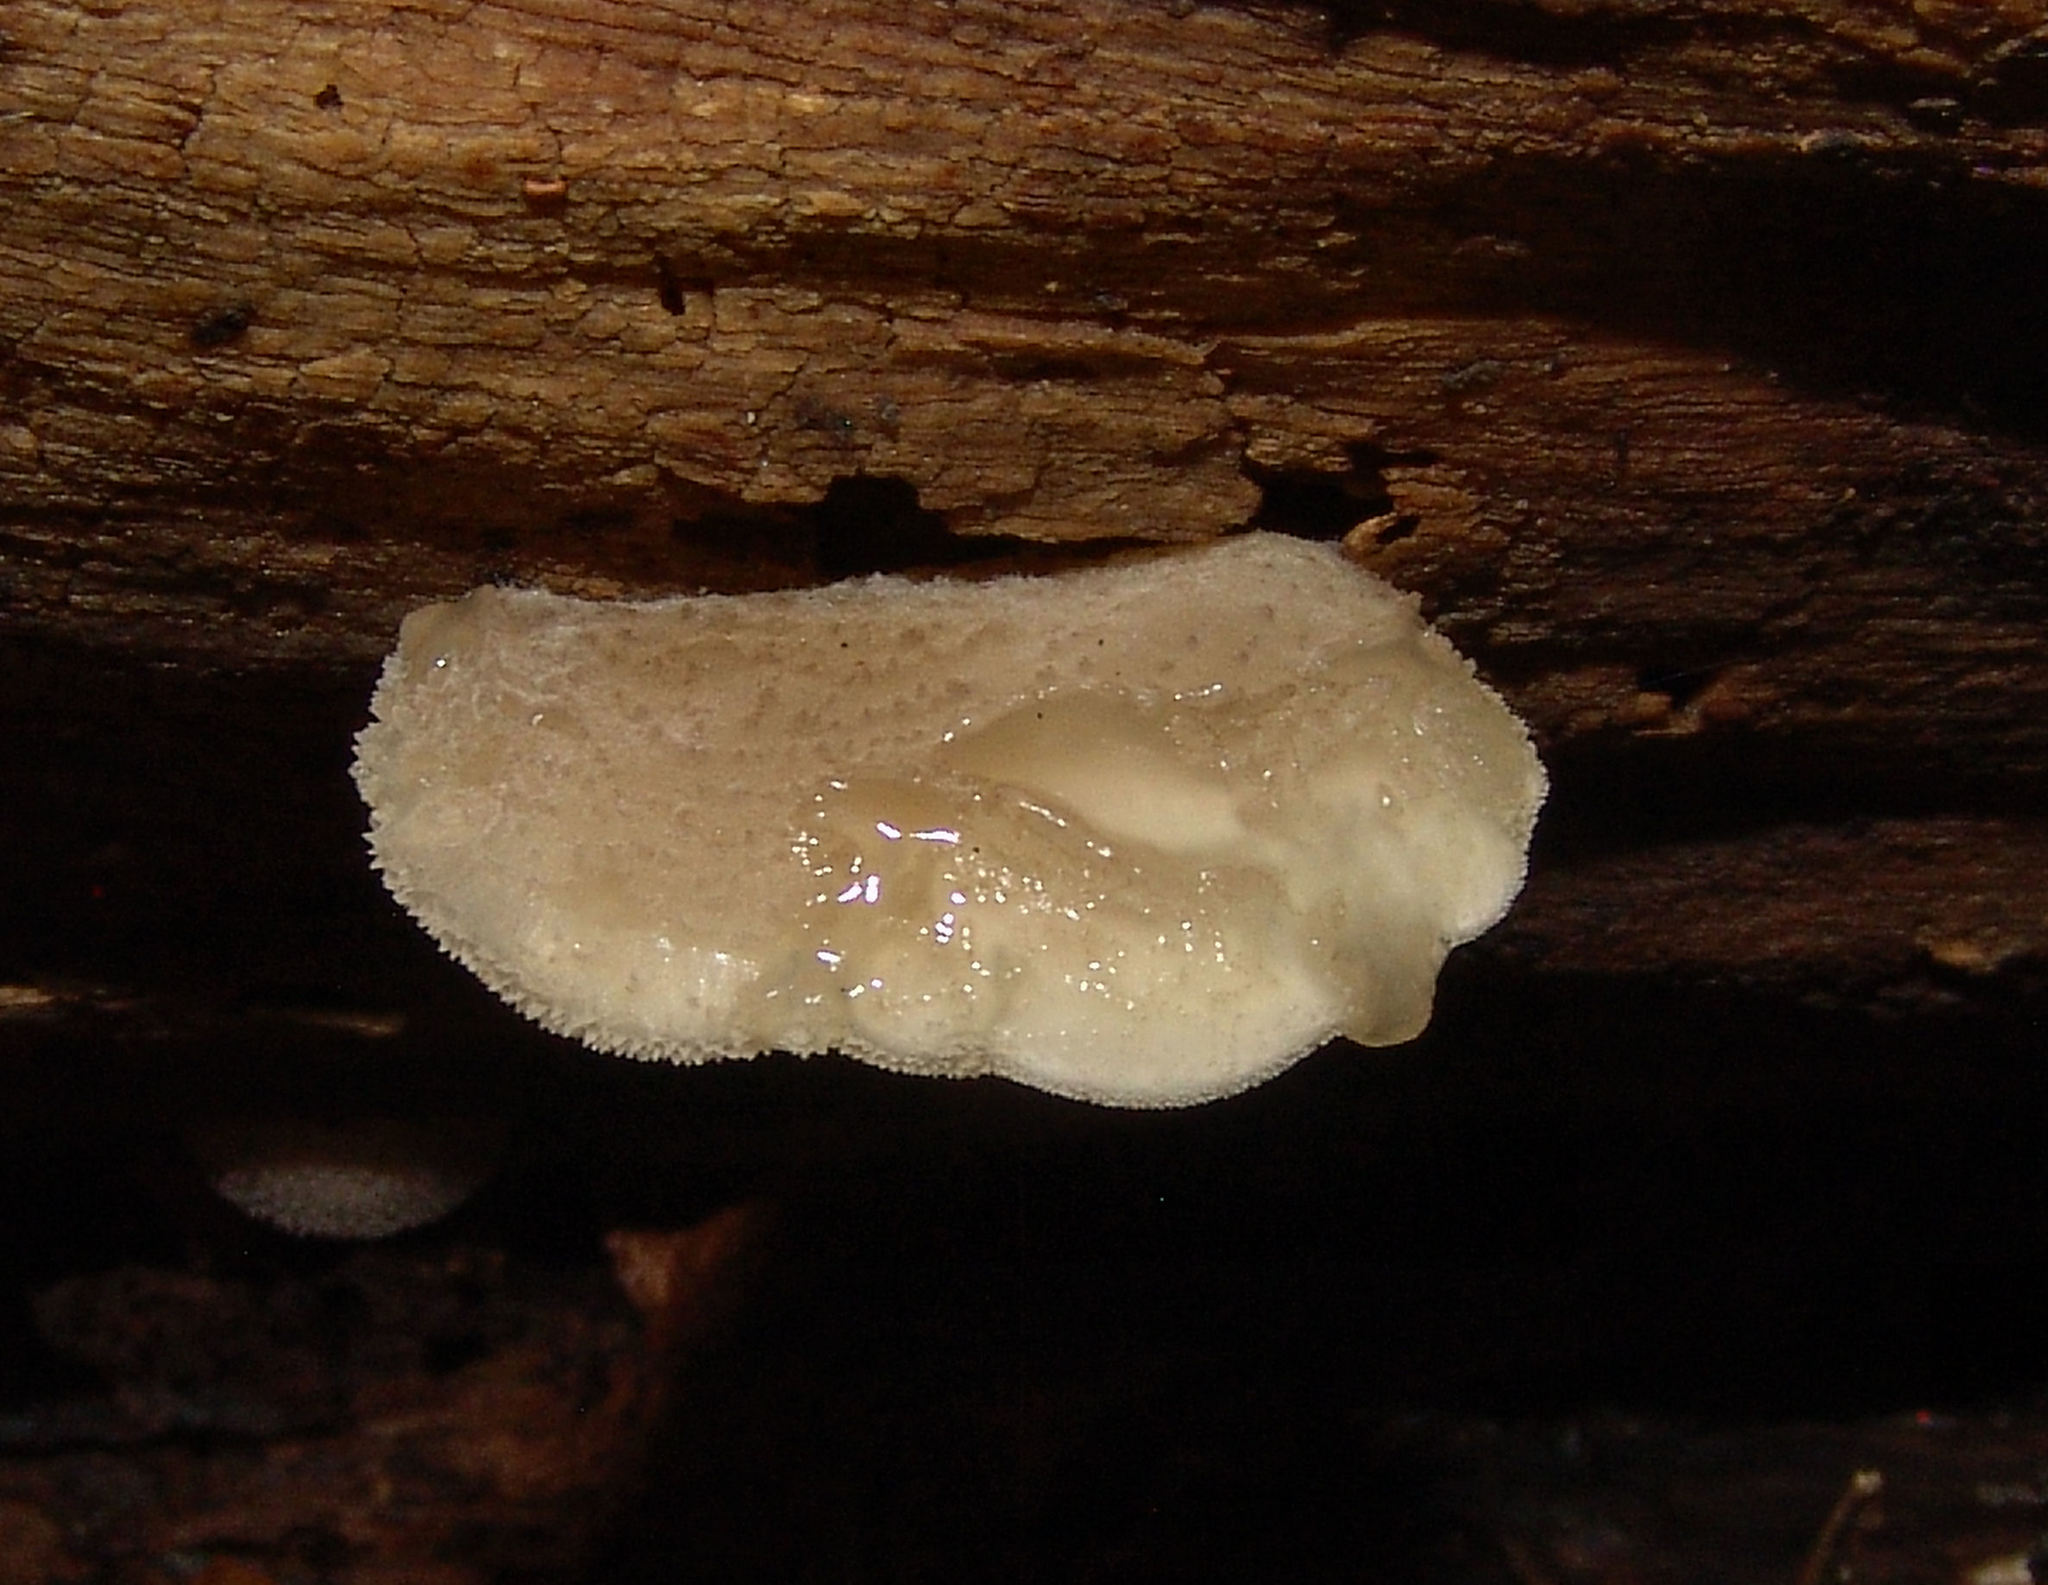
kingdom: Fungi
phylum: Basidiomycota
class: Agaricomycetes
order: Agaricales
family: Pleurotaceae
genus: Hohenbuehelia
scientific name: Hohenbuehelia mastrucata
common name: Woolly oyster
